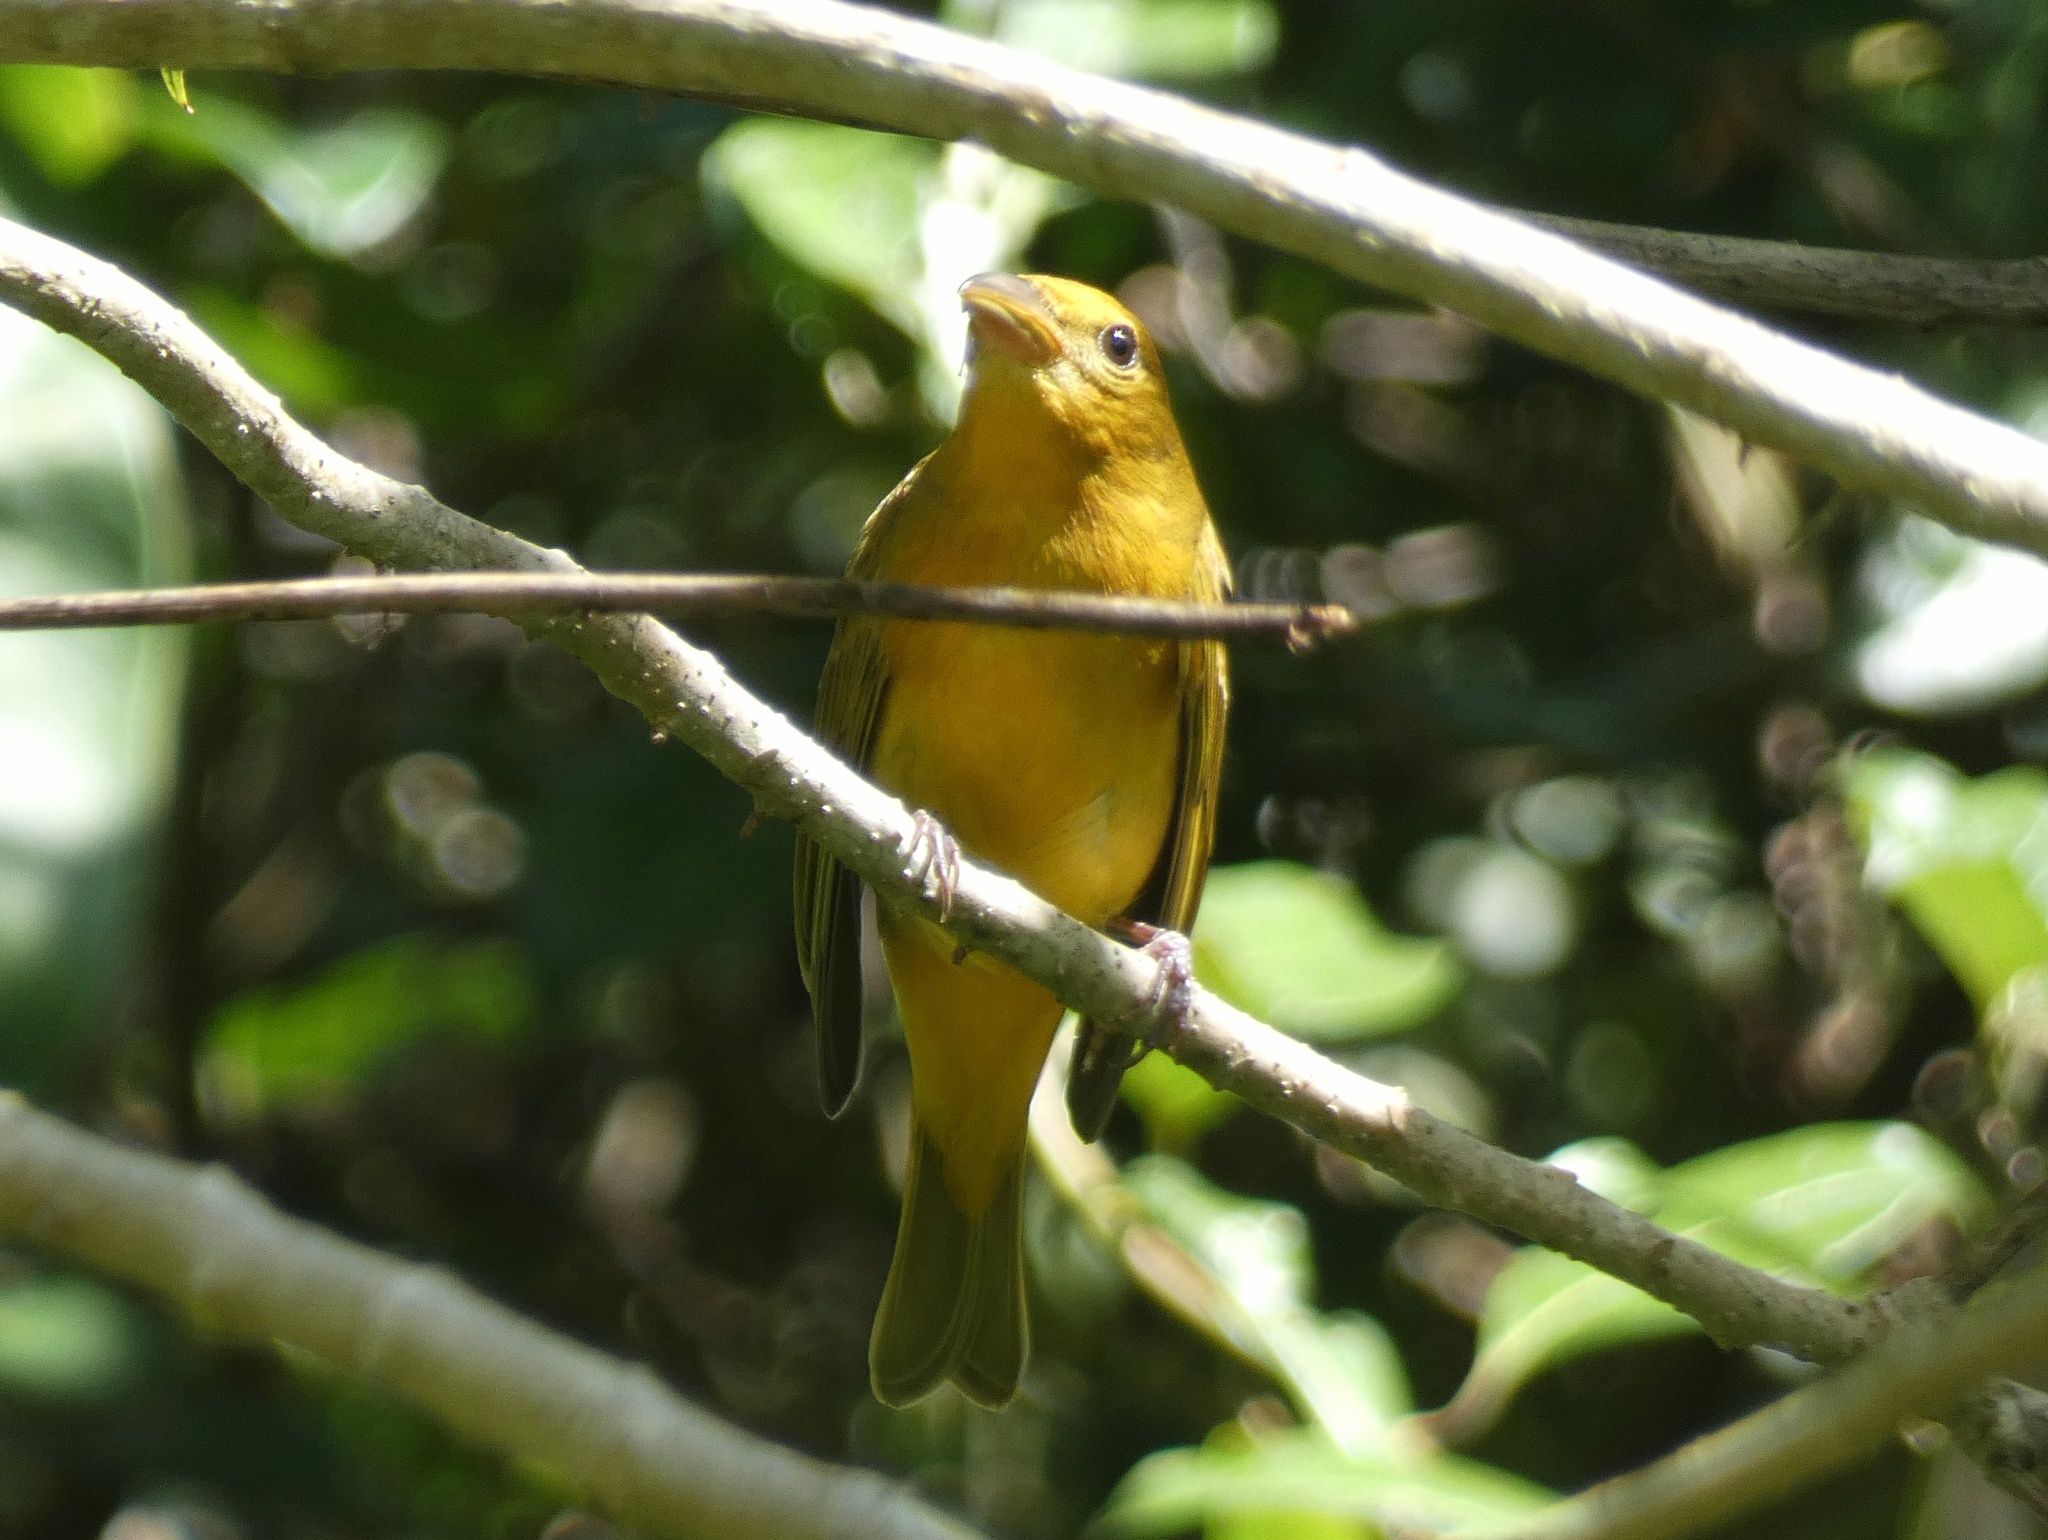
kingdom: Animalia
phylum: Chordata
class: Aves
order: Passeriformes
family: Cardinalidae
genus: Piranga
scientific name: Piranga rubra
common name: Summer tanager
